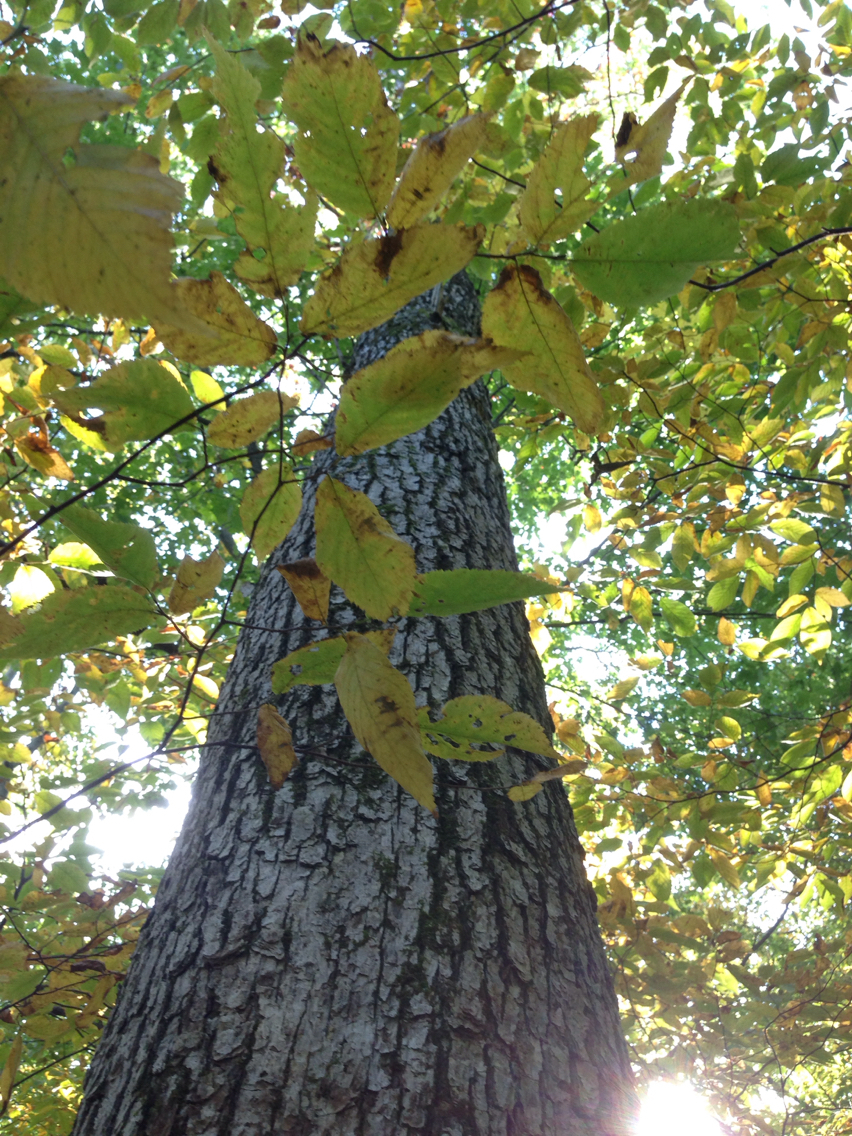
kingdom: Plantae
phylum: Tracheophyta
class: Magnoliopsida
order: Fagales
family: Fagaceae
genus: Quercus
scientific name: Quercus alba
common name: White oak
